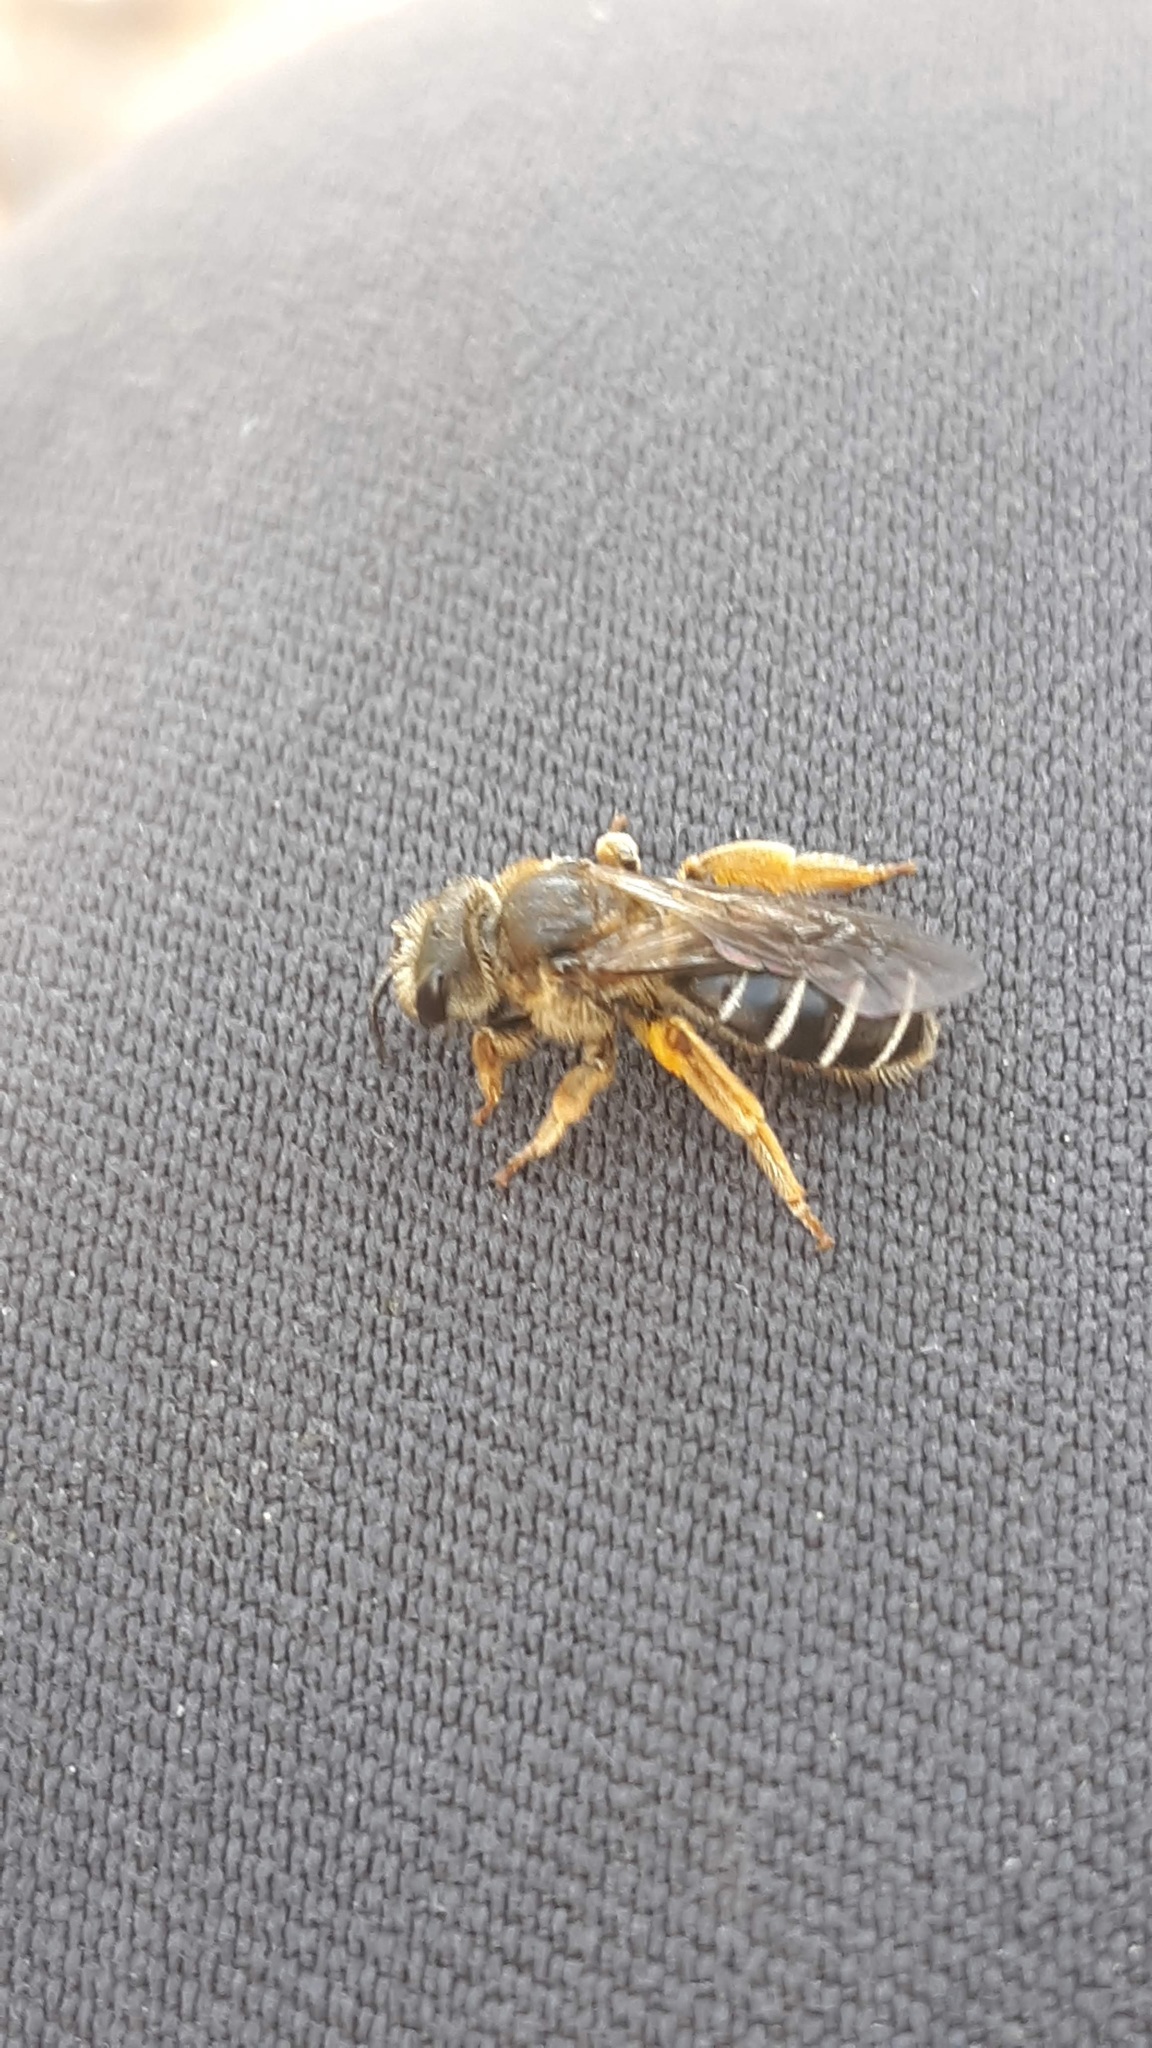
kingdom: Animalia
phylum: Arthropoda
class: Insecta
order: Hymenoptera
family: Halictidae
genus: Halictus
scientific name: Halictus rubicundus
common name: Orange-legged furrow bee
